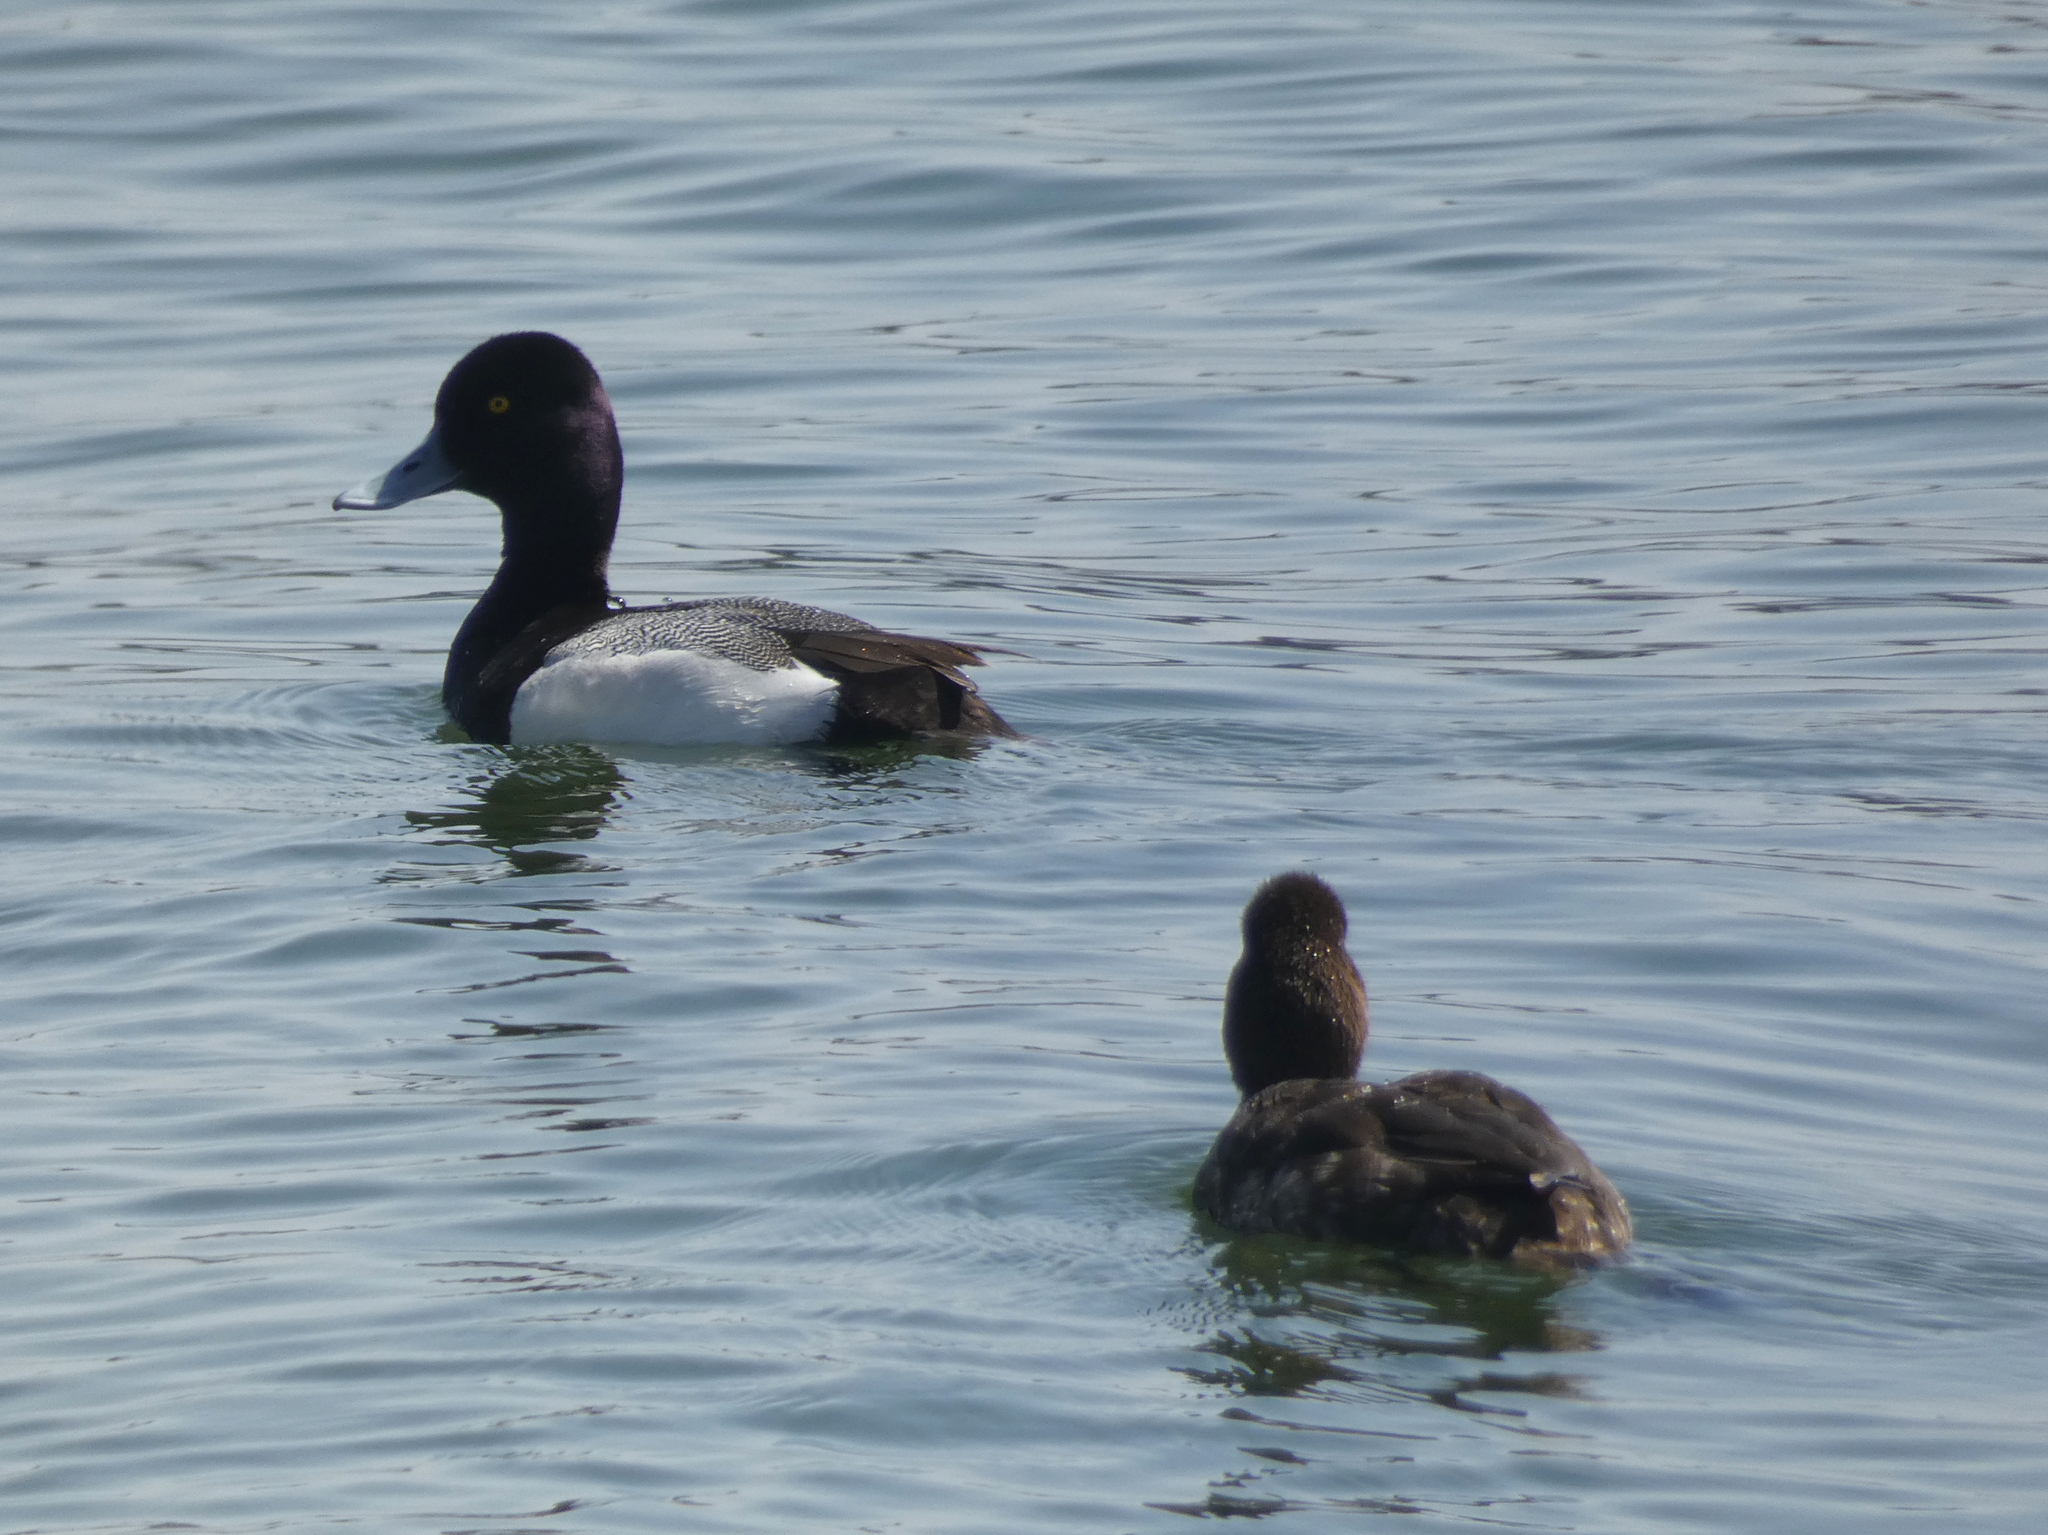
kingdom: Animalia
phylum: Chordata
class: Aves
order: Anseriformes
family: Anatidae
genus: Aythya
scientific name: Aythya affinis
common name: Lesser scaup
